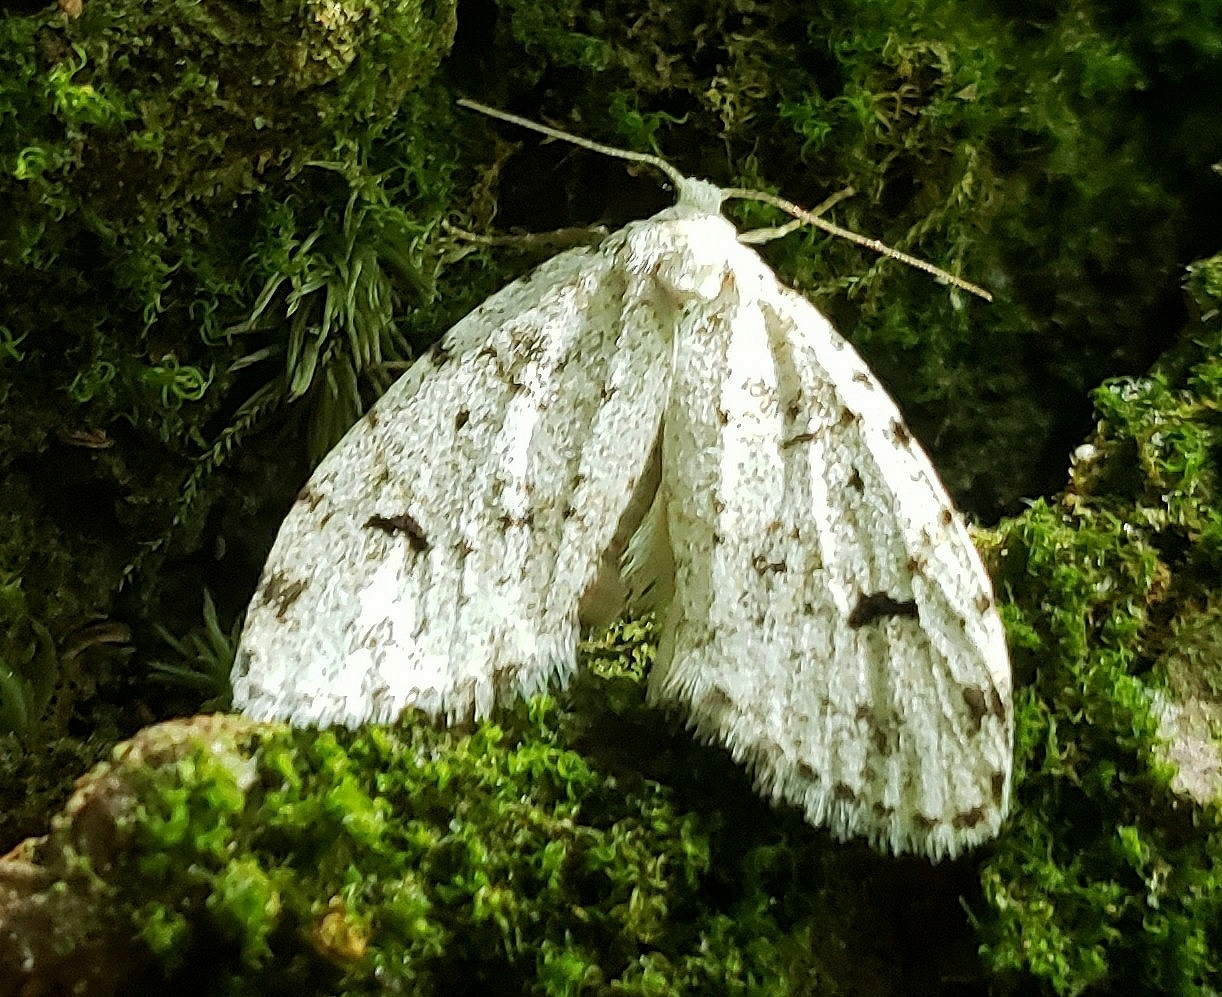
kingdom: Animalia
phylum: Arthropoda
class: Insecta
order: Lepidoptera
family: Erebidae
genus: Clemensia
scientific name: Clemensia albata
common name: Little white lichen moth
